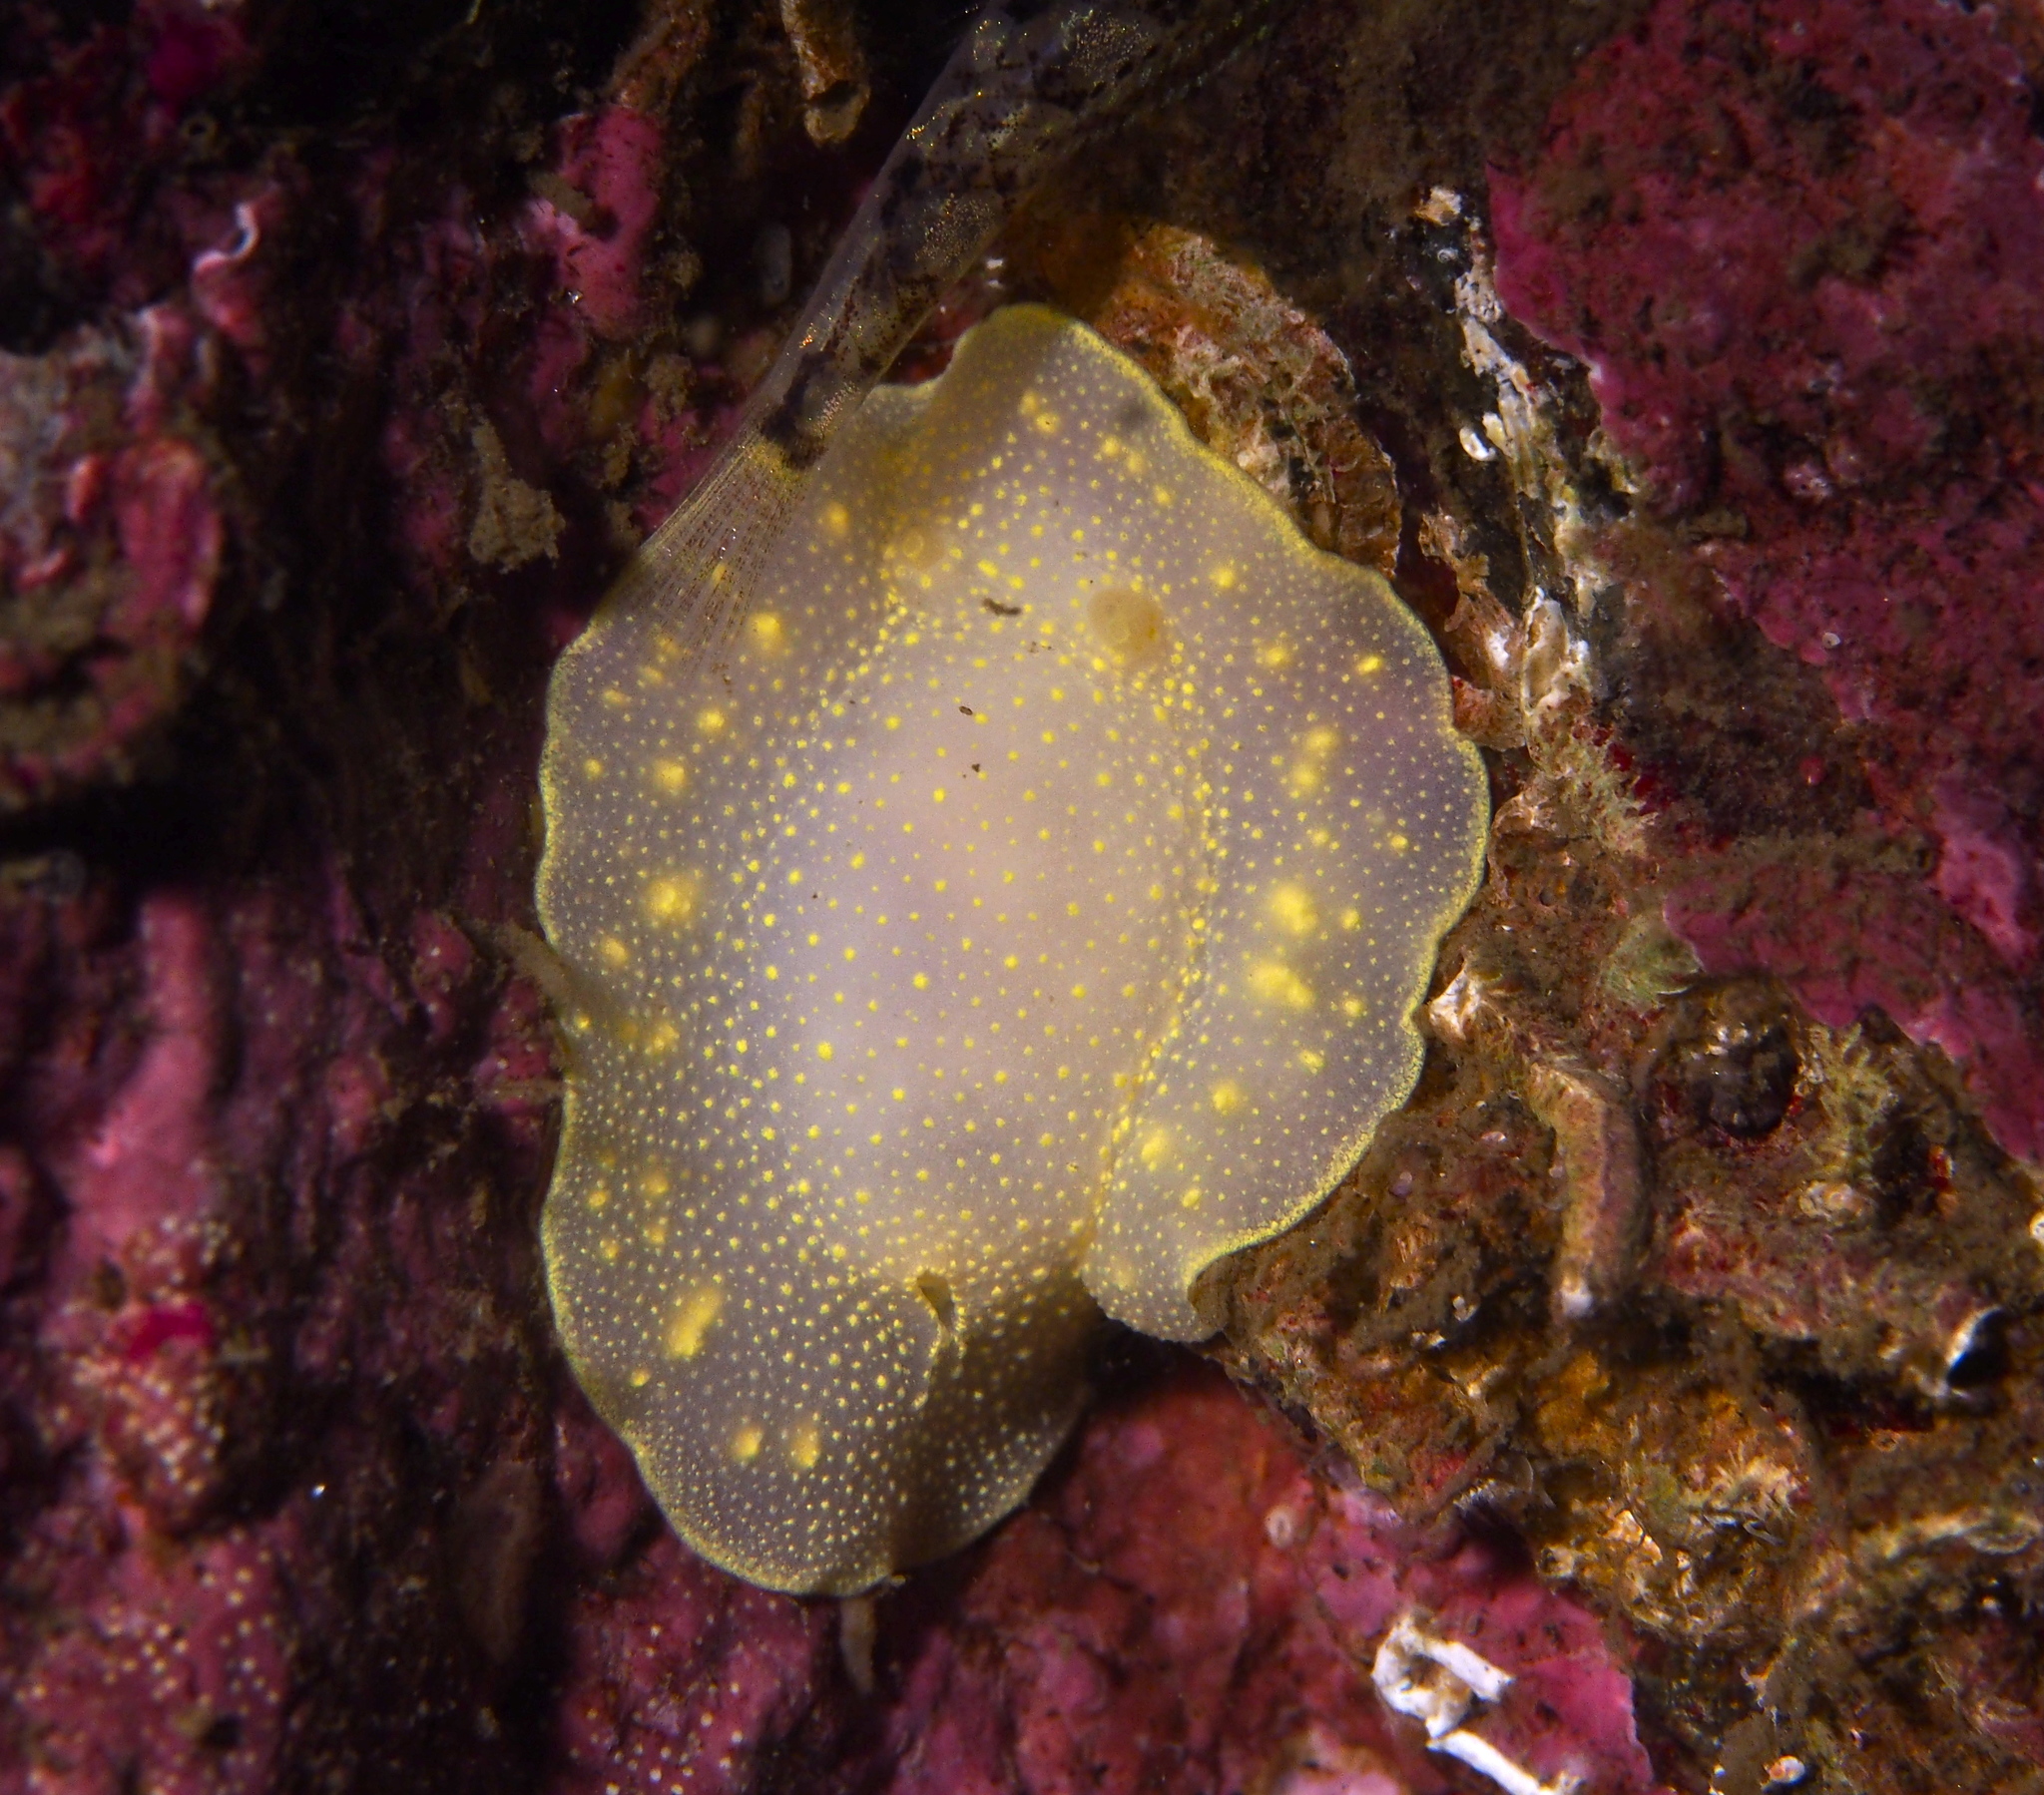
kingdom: Animalia
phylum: Mollusca
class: Gastropoda
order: Nudibranchia
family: Cadlinidae
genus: Cadlina
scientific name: Cadlina laevis
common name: White atlantic cadlina
